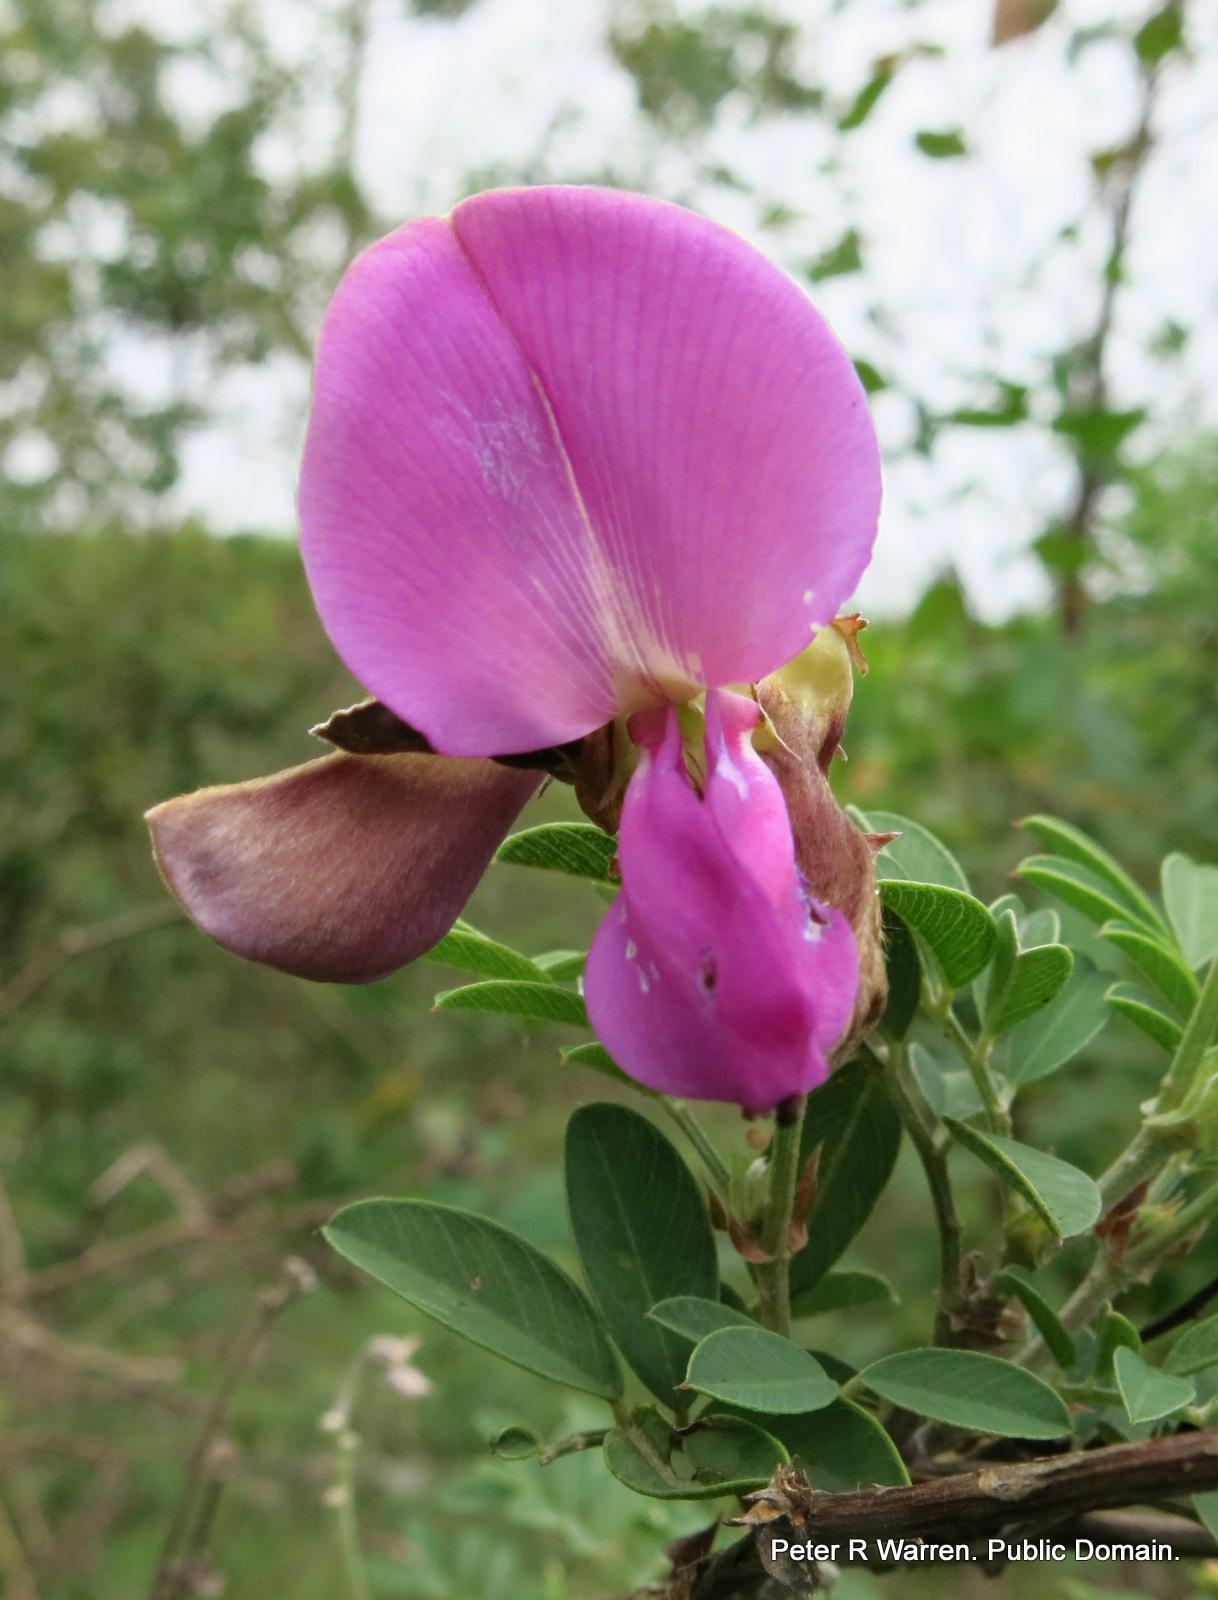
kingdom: Plantae
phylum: Tracheophyta
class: Magnoliopsida
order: Fabales
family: Fabaceae
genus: Tephrosia
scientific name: Tephrosia grandiflora
